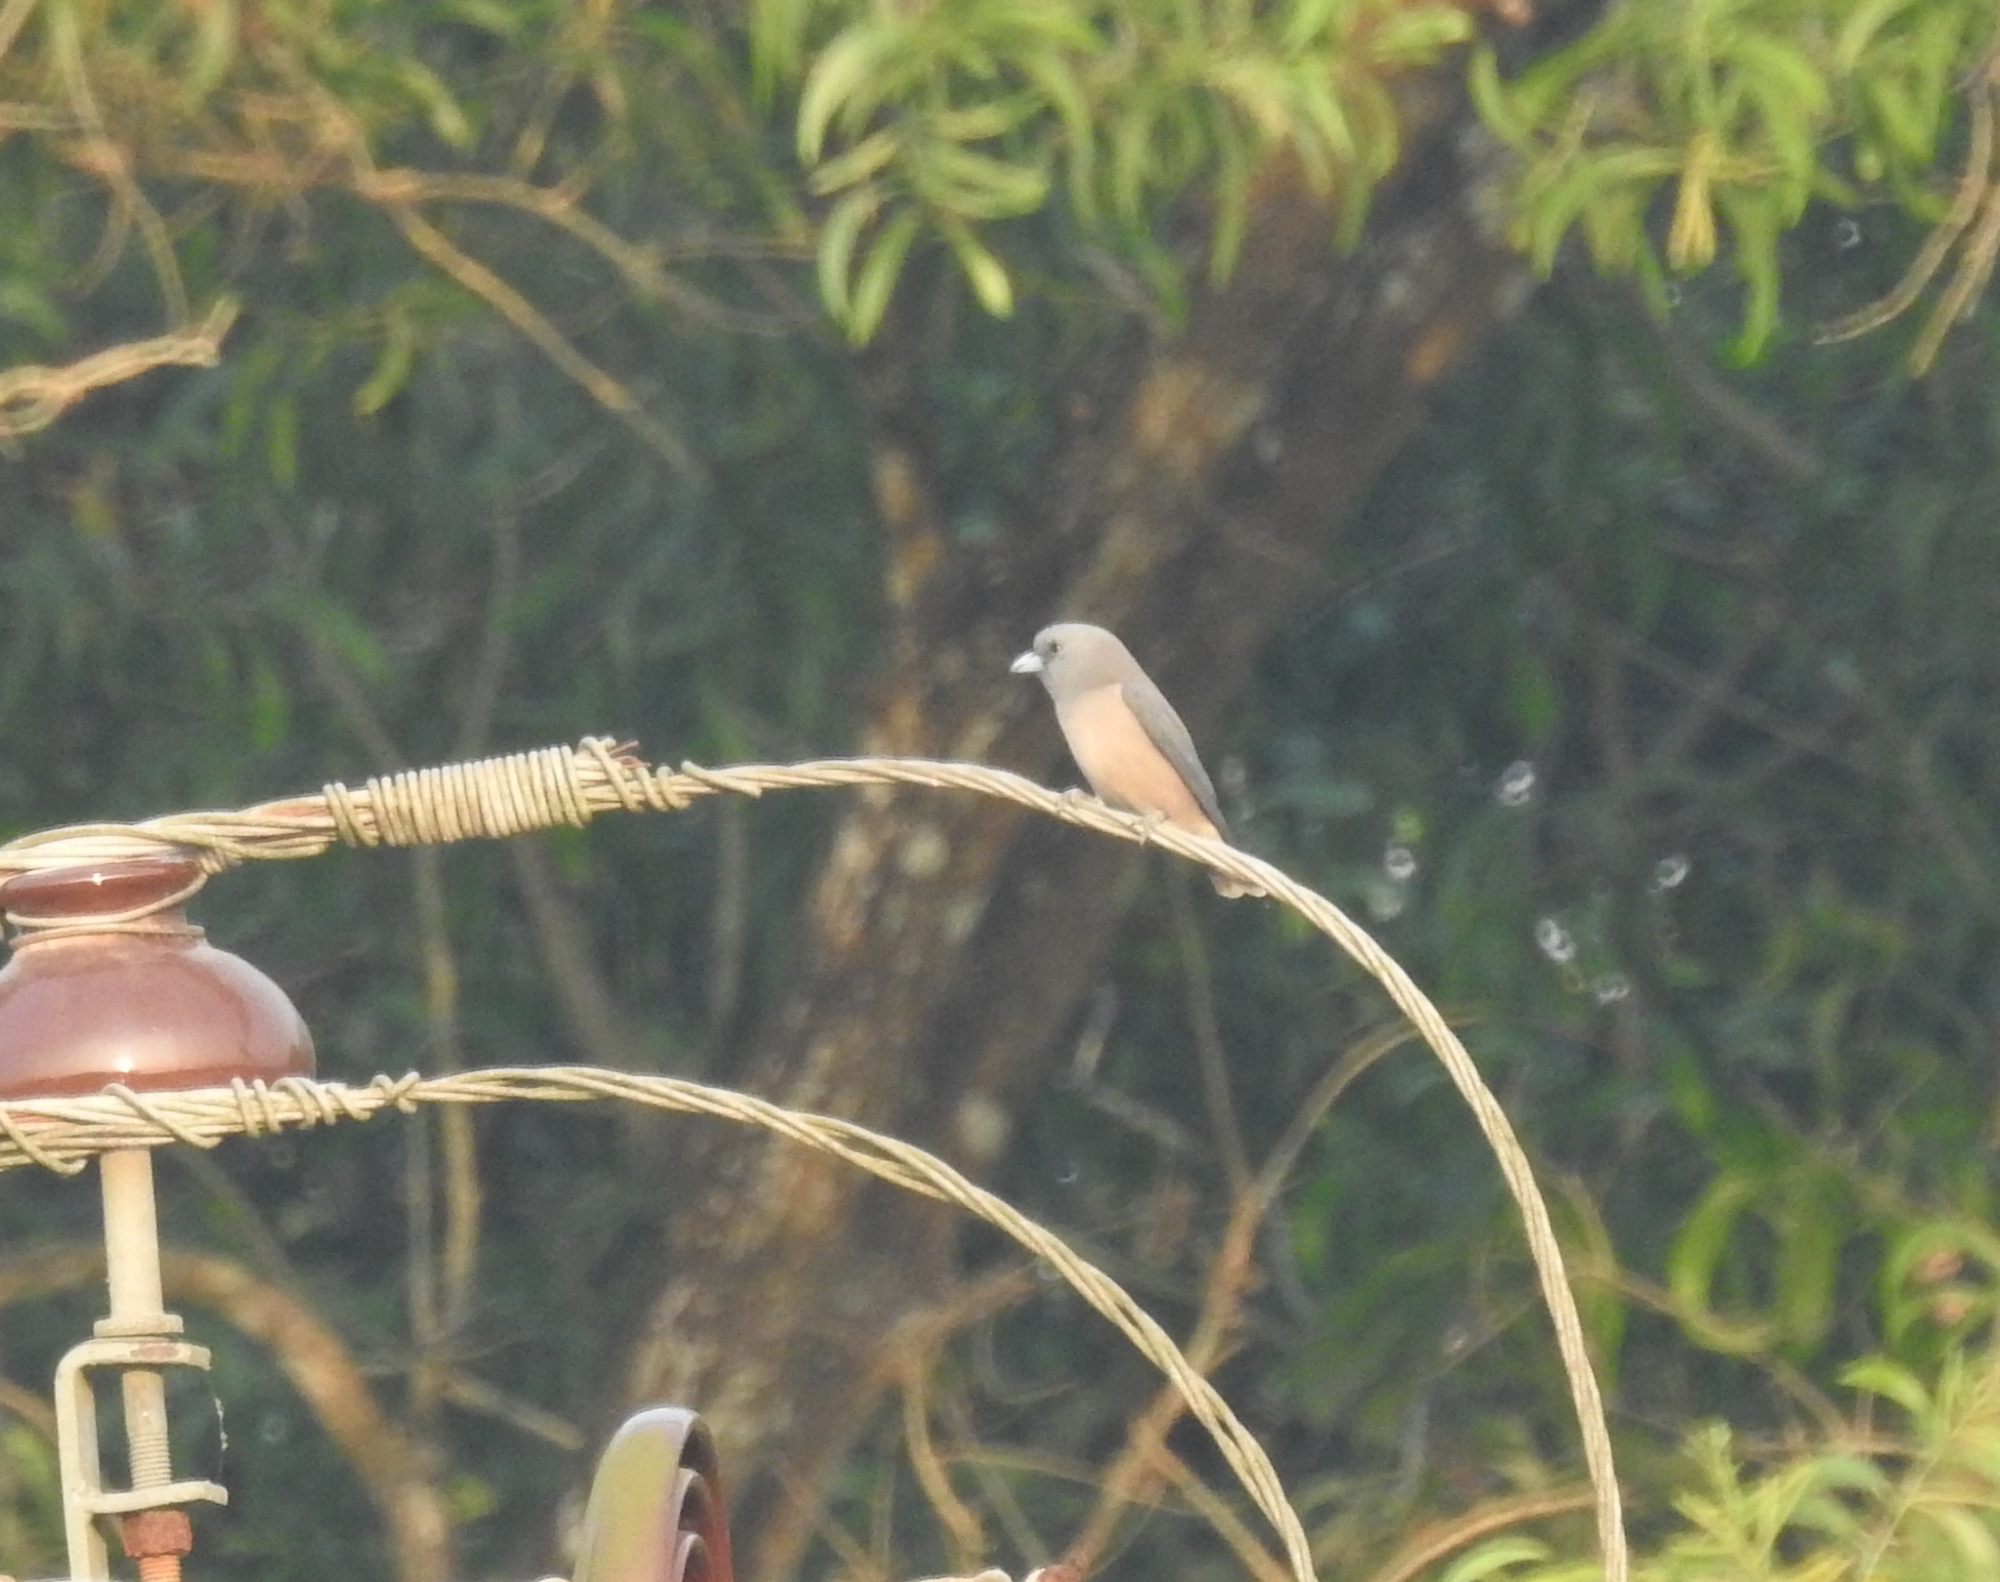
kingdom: Animalia
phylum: Chordata
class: Aves
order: Passeriformes
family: Artamidae
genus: Artamus
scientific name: Artamus fuscus
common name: Ashy woodswallow
